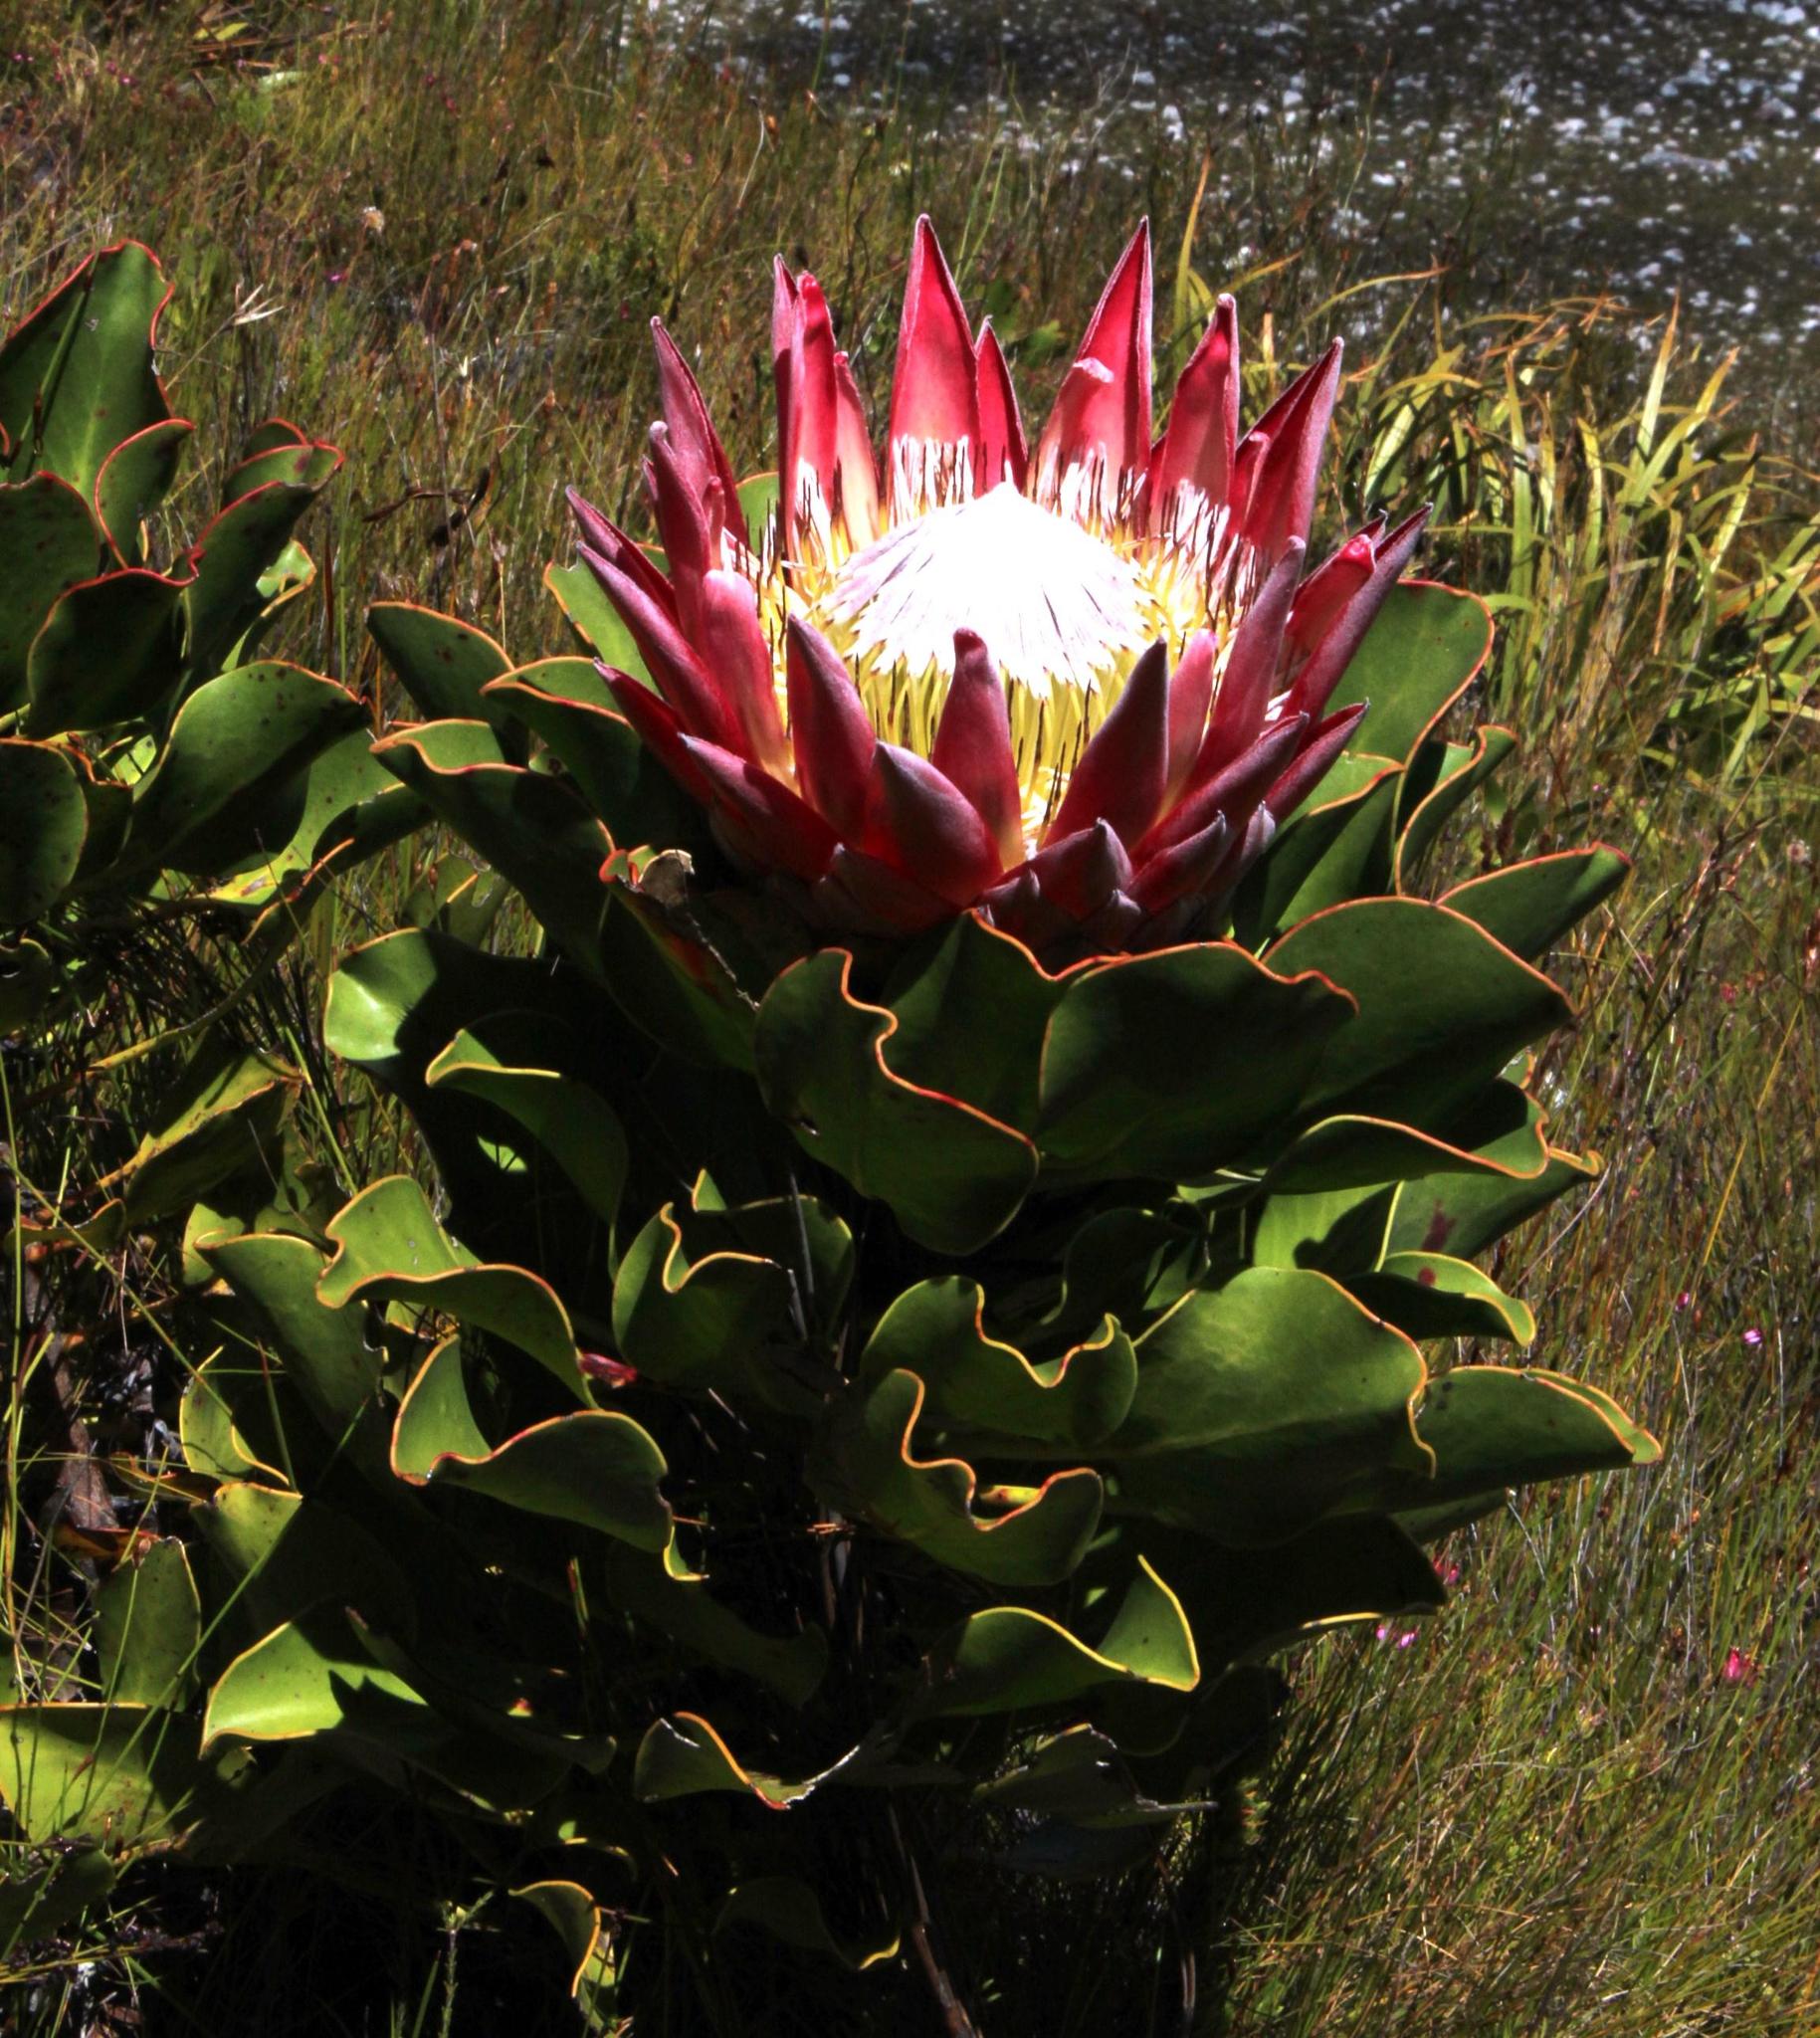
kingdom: Plantae
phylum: Tracheophyta
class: Magnoliopsida
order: Proteales
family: Proteaceae
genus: Protea
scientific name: Protea cynaroides
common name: King protea
